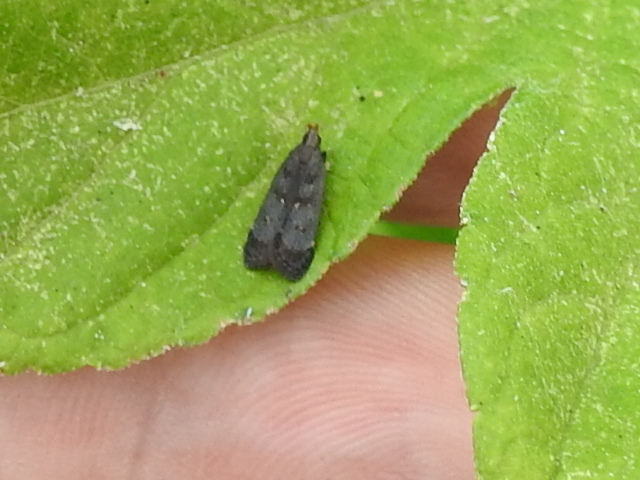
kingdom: Animalia
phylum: Arthropoda
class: Insecta
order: Lepidoptera
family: Gelechiidae
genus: Dichomeris
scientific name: Dichomeris juncidella
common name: Orange-dotted dichomeris moth
